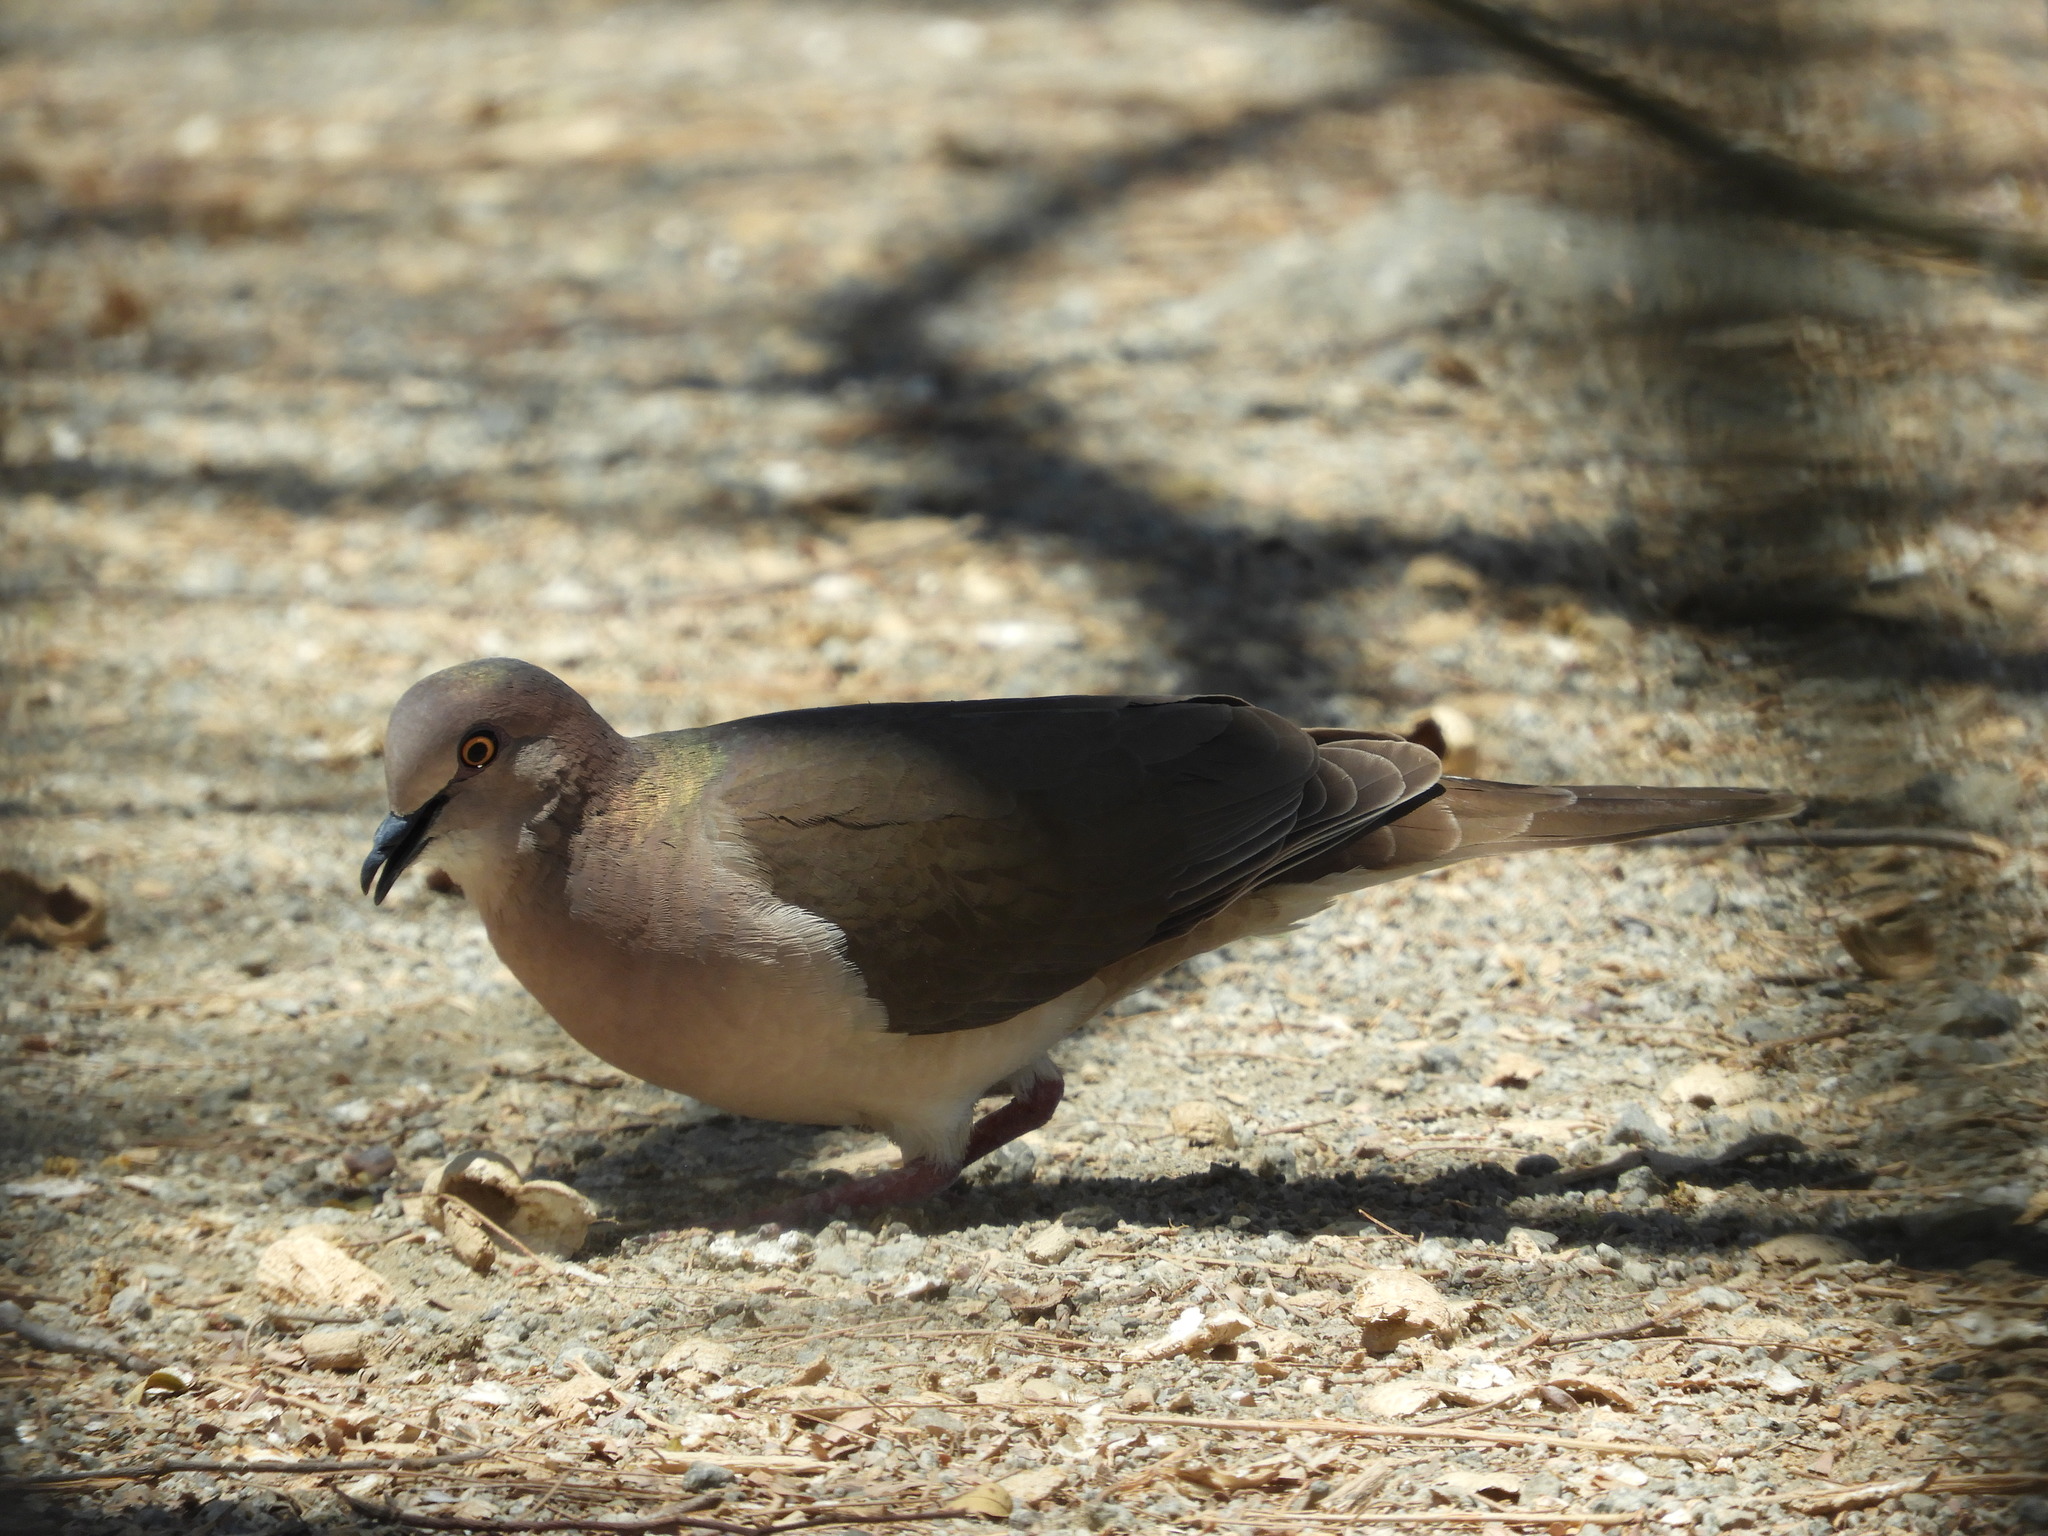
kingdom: Animalia
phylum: Chordata
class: Aves
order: Columbiformes
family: Columbidae
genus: Leptotila
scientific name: Leptotila verreauxi
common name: White-tipped dove
